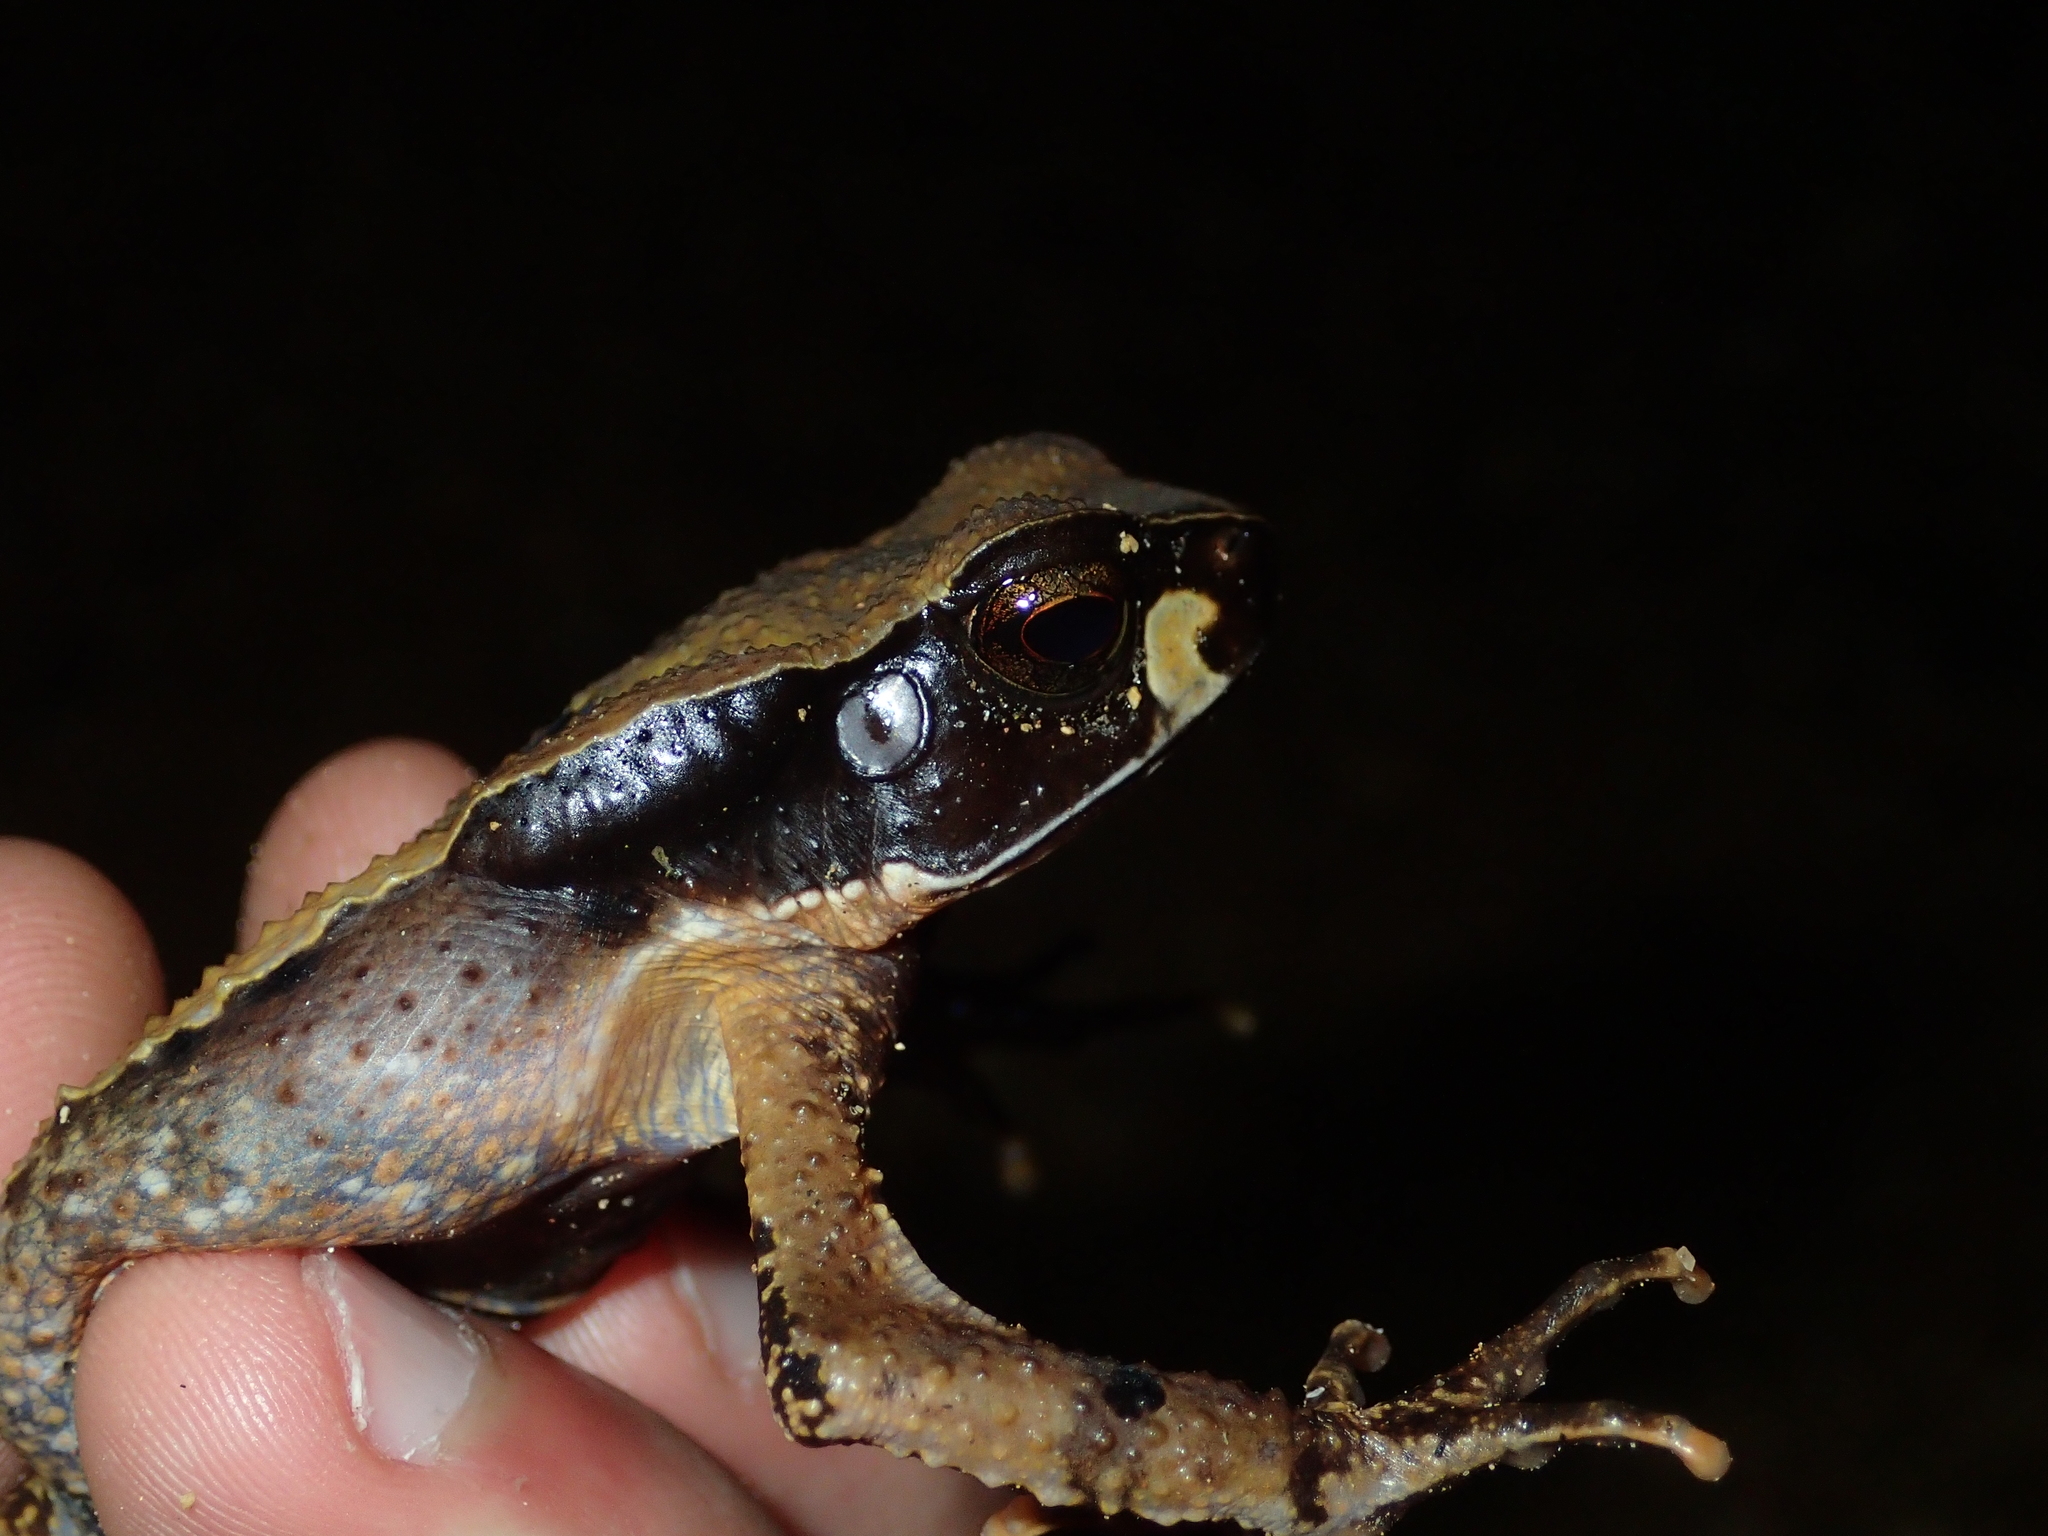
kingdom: Animalia
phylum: Chordata
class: Amphibia
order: Anura
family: Bufonidae
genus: Rhaebo
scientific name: Rhaebo haematiticus
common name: Truando toad
